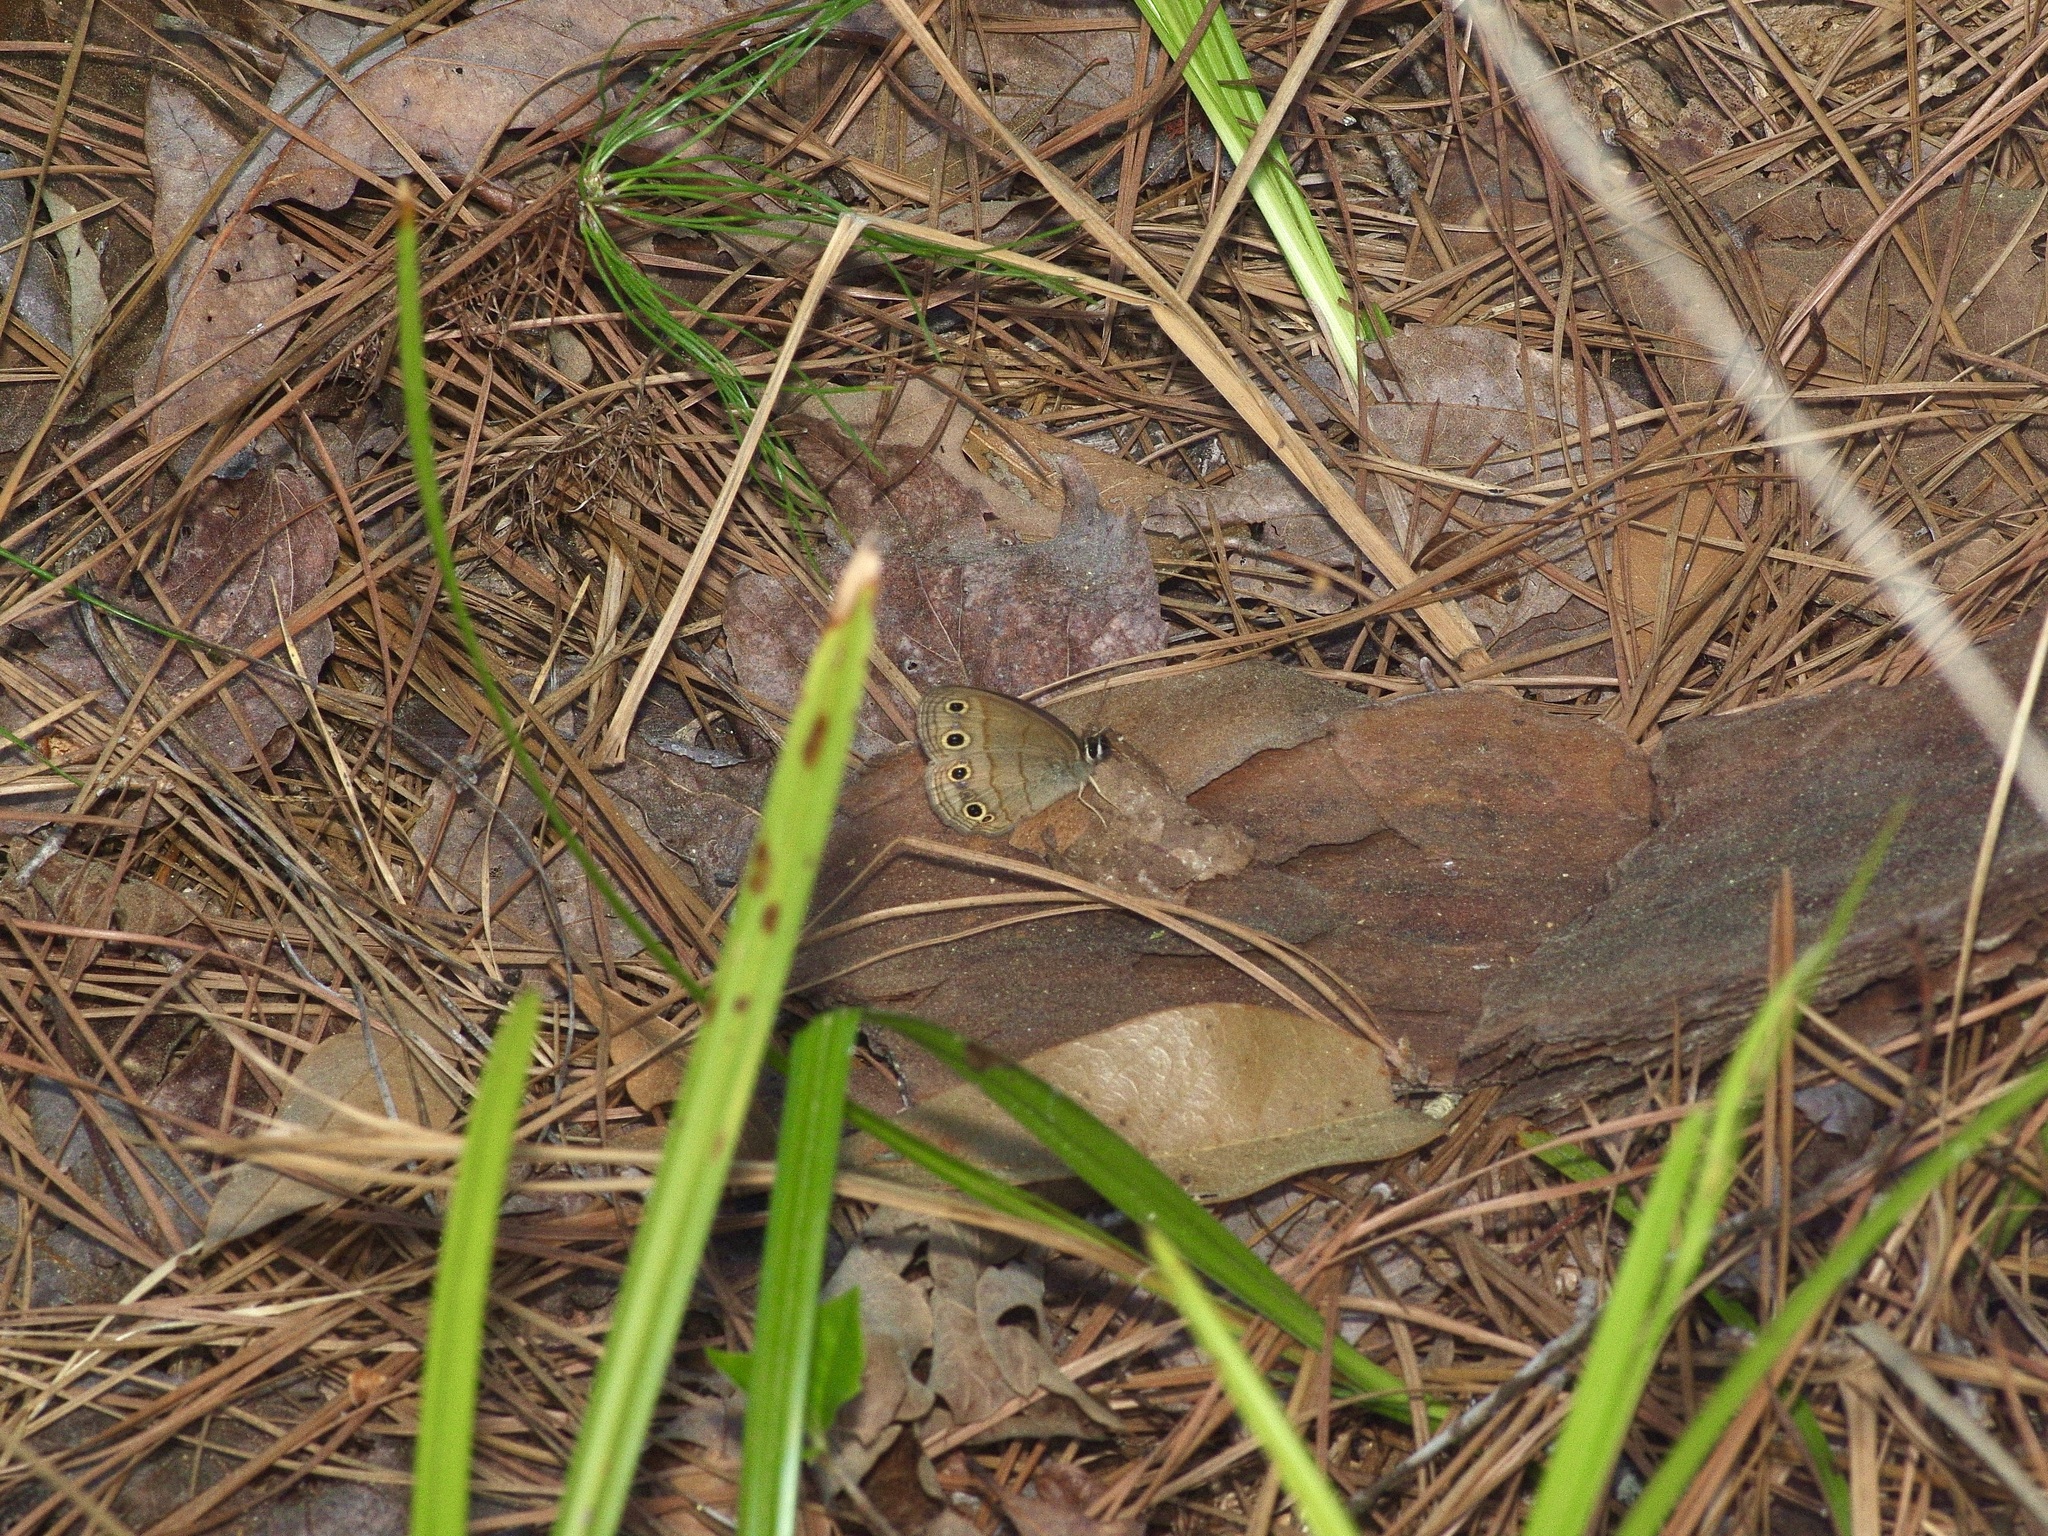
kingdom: Animalia
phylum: Arthropoda
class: Insecta
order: Lepidoptera
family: Nymphalidae
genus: Euptychia
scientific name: Euptychia cymela
